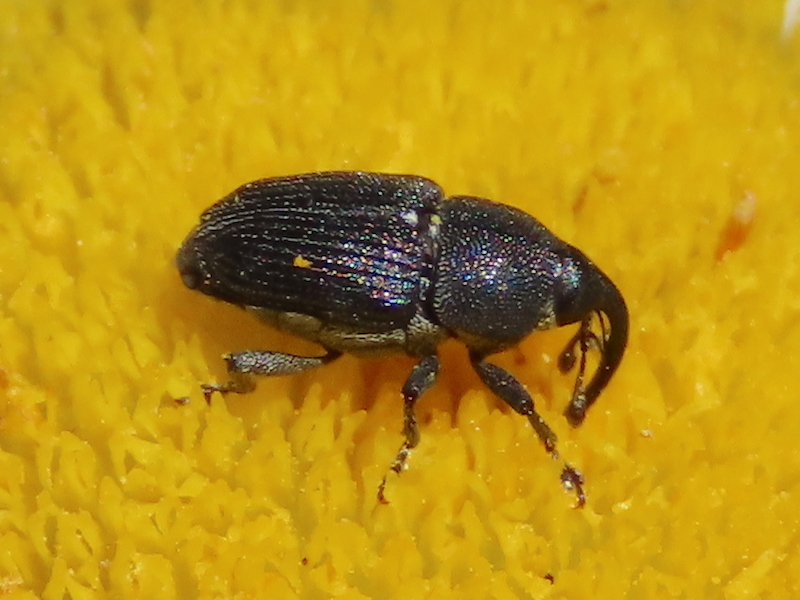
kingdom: Animalia
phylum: Arthropoda
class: Insecta
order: Coleoptera
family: Curculionidae
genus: Odontocorynus
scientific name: Odontocorynus salebrosus
